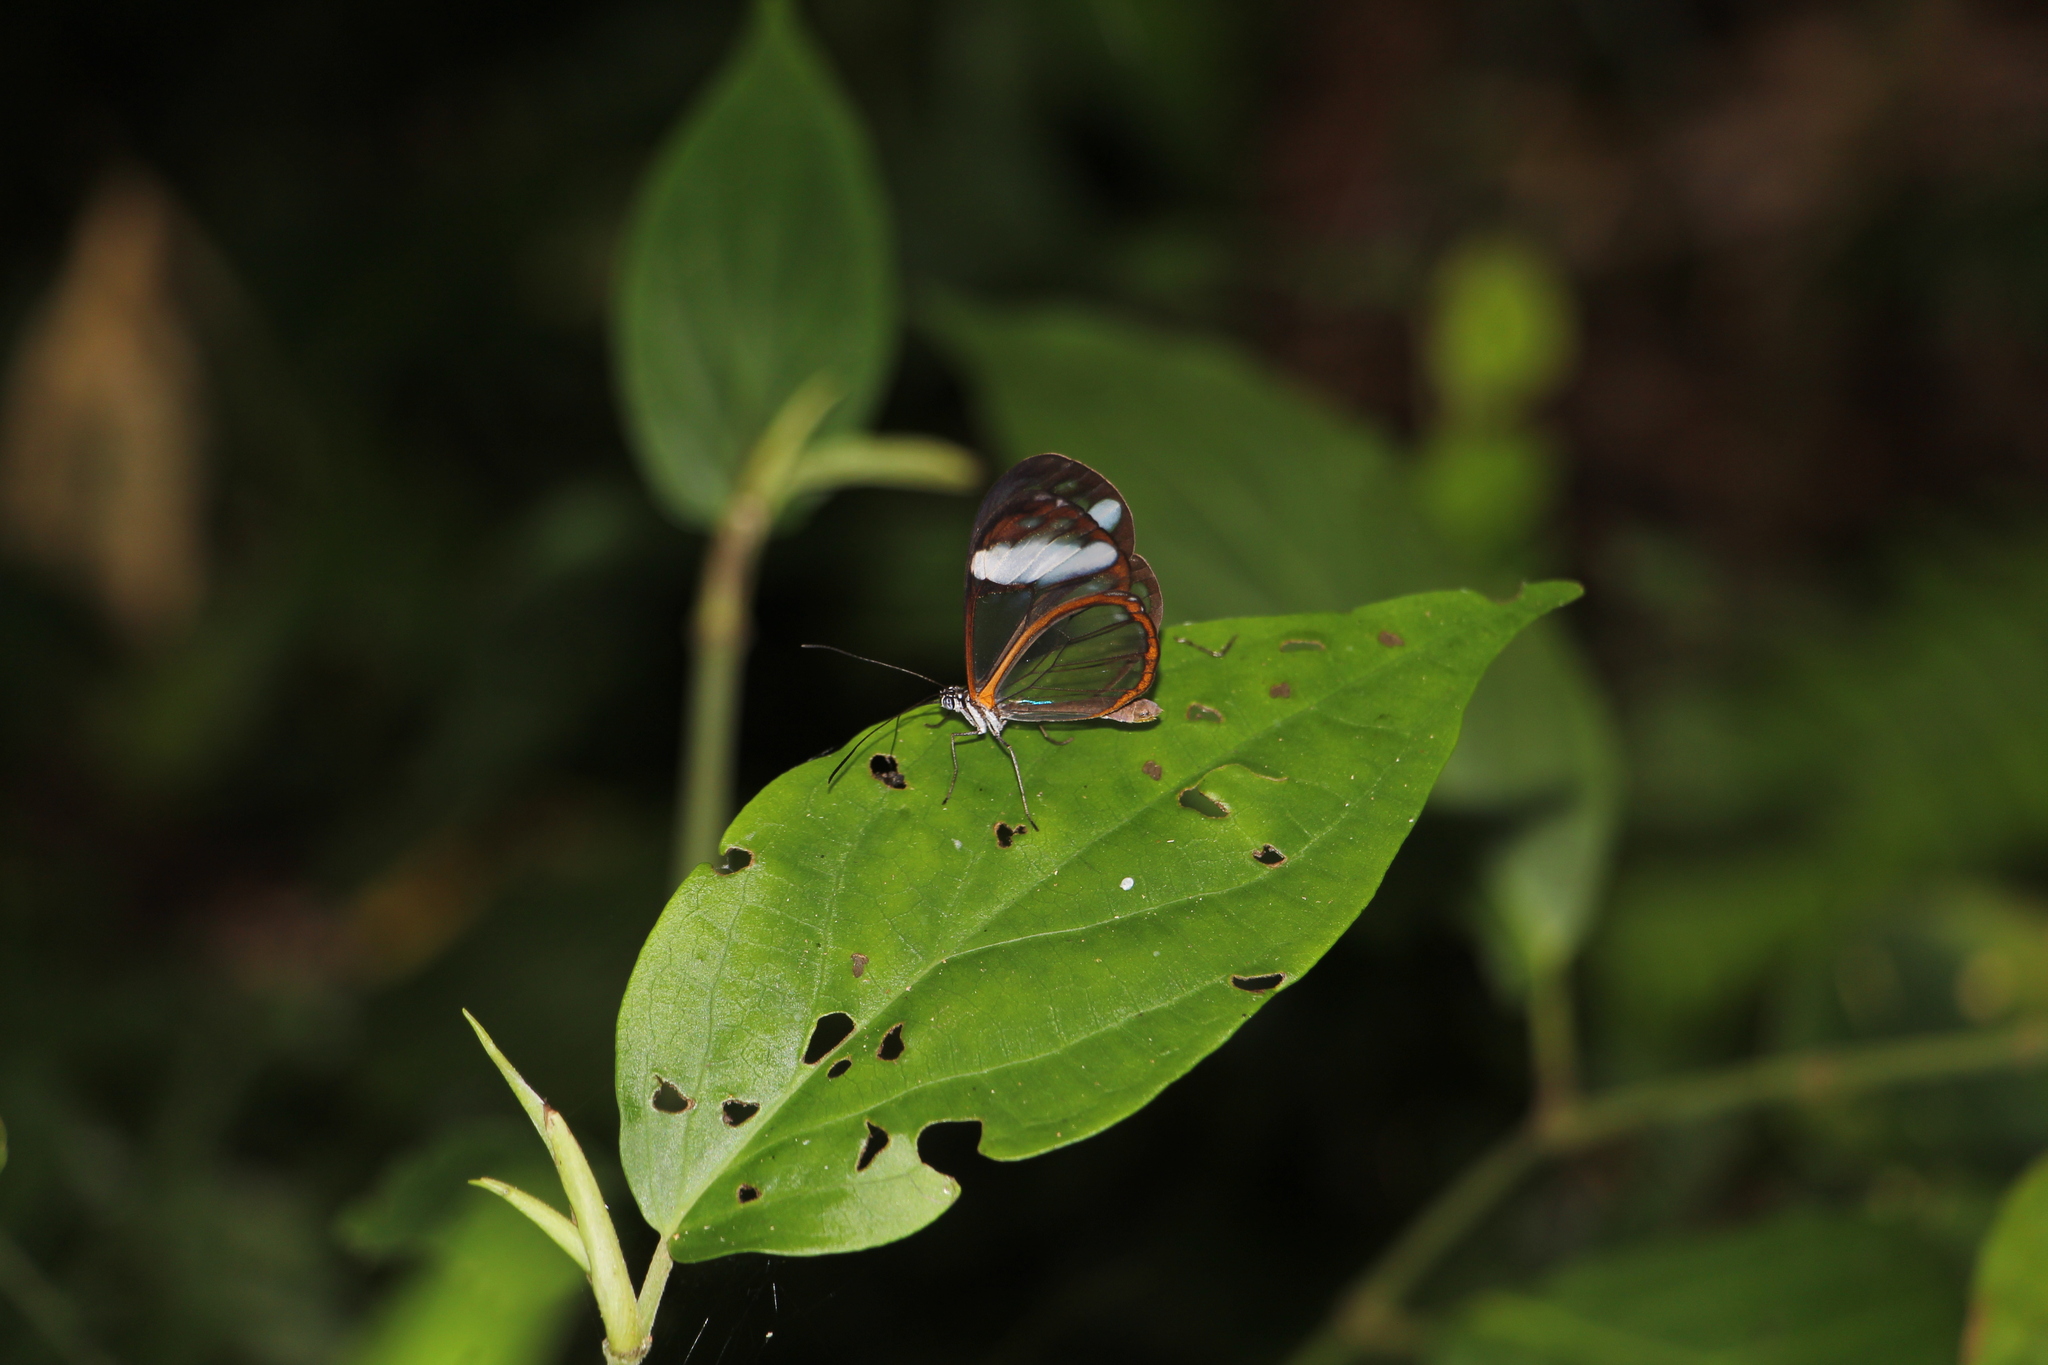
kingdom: Animalia
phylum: Arthropoda
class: Insecta
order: Lepidoptera
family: Nymphalidae
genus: Greta
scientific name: Greta andromica
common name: Andromica clearwing
